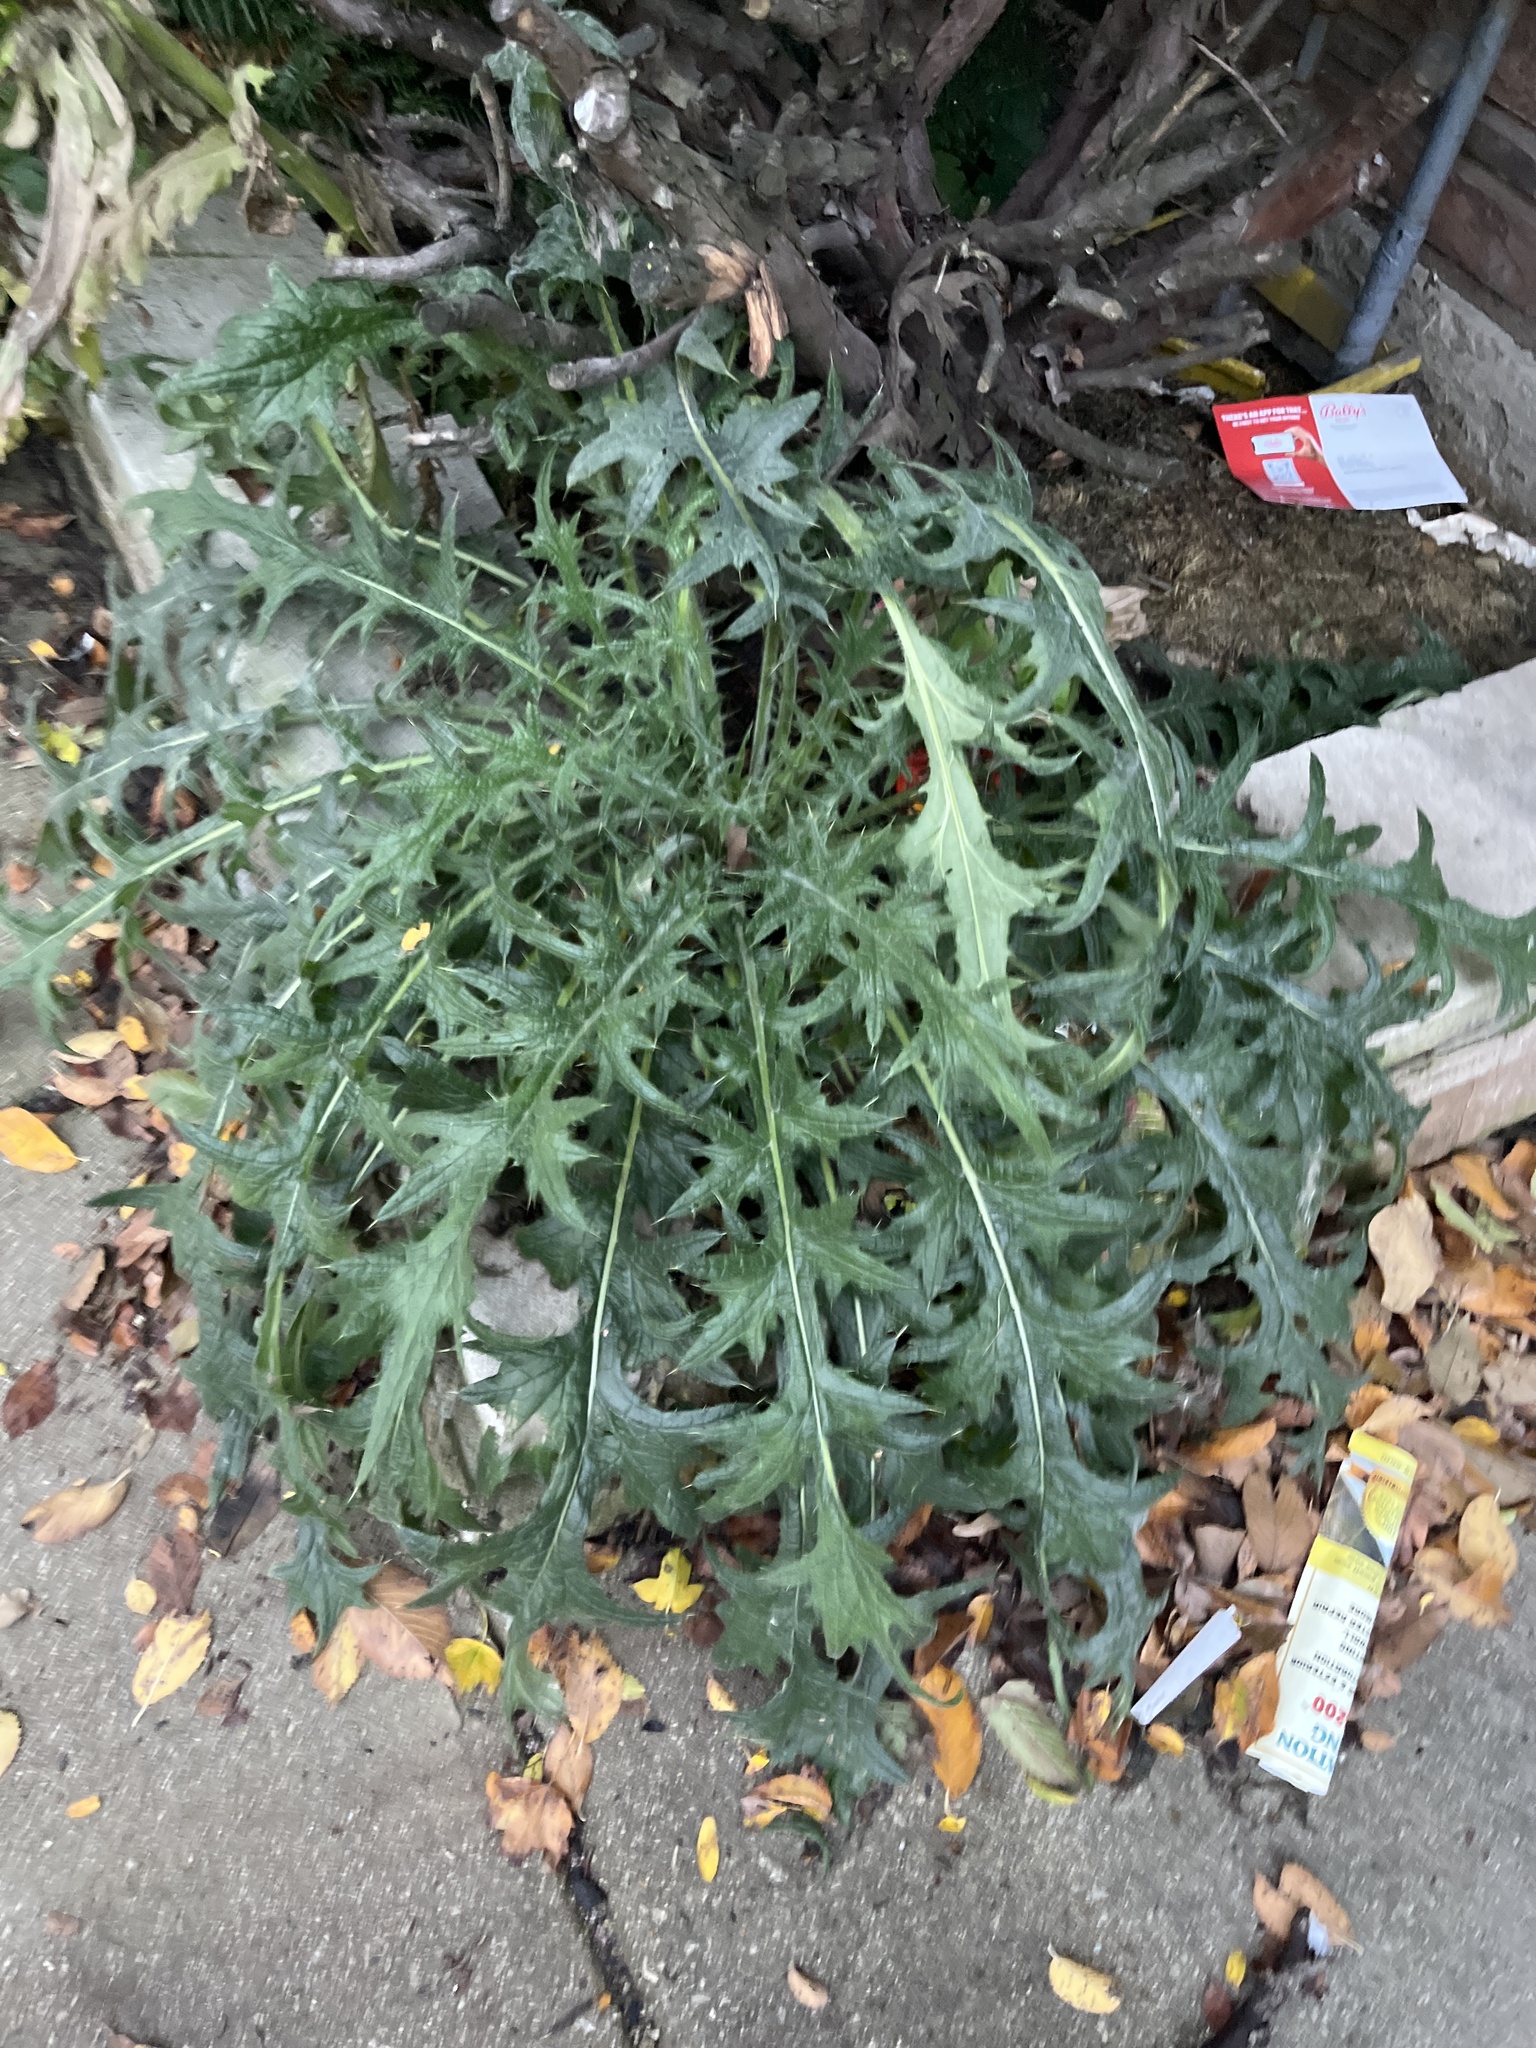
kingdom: Plantae
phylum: Tracheophyta
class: Magnoliopsida
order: Asterales
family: Asteraceae
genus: Cirsium
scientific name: Cirsium vulgare
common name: Bull thistle
